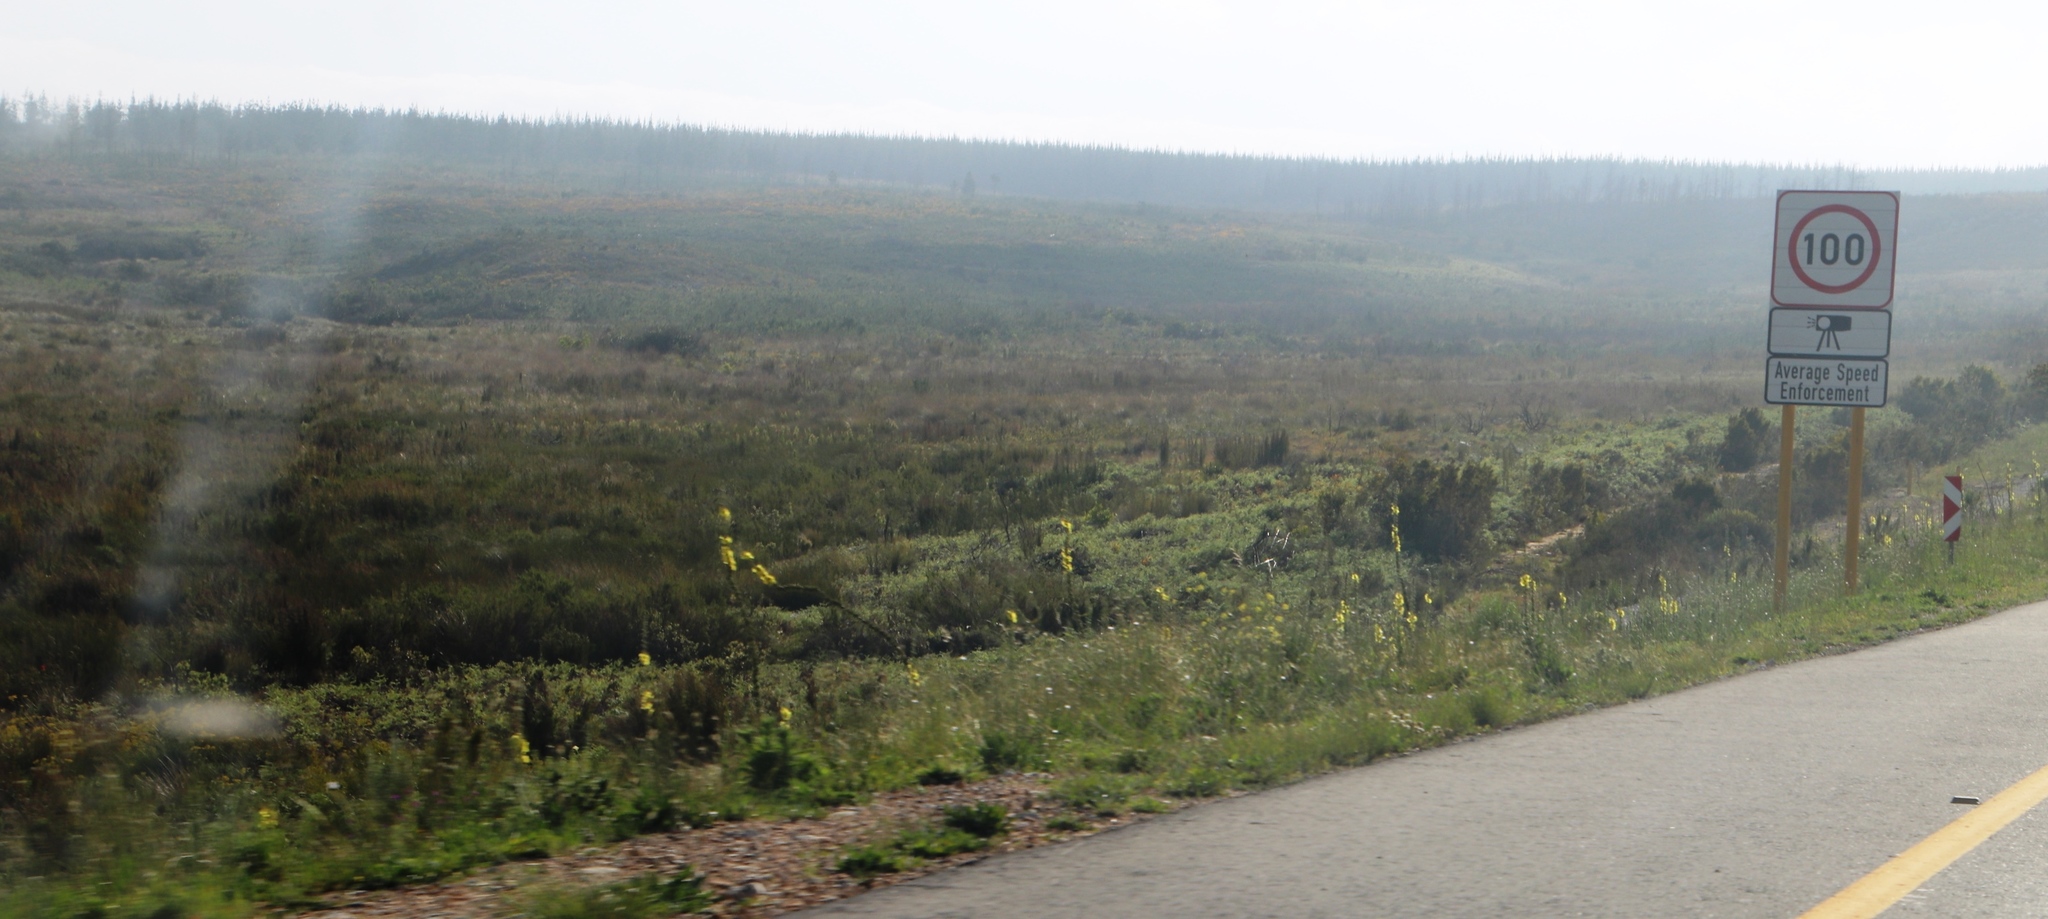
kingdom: Plantae
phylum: Tracheophyta
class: Magnoliopsida
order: Lamiales
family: Scrophulariaceae
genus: Verbascum
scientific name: Verbascum virgatum
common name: Twiggy mullein
